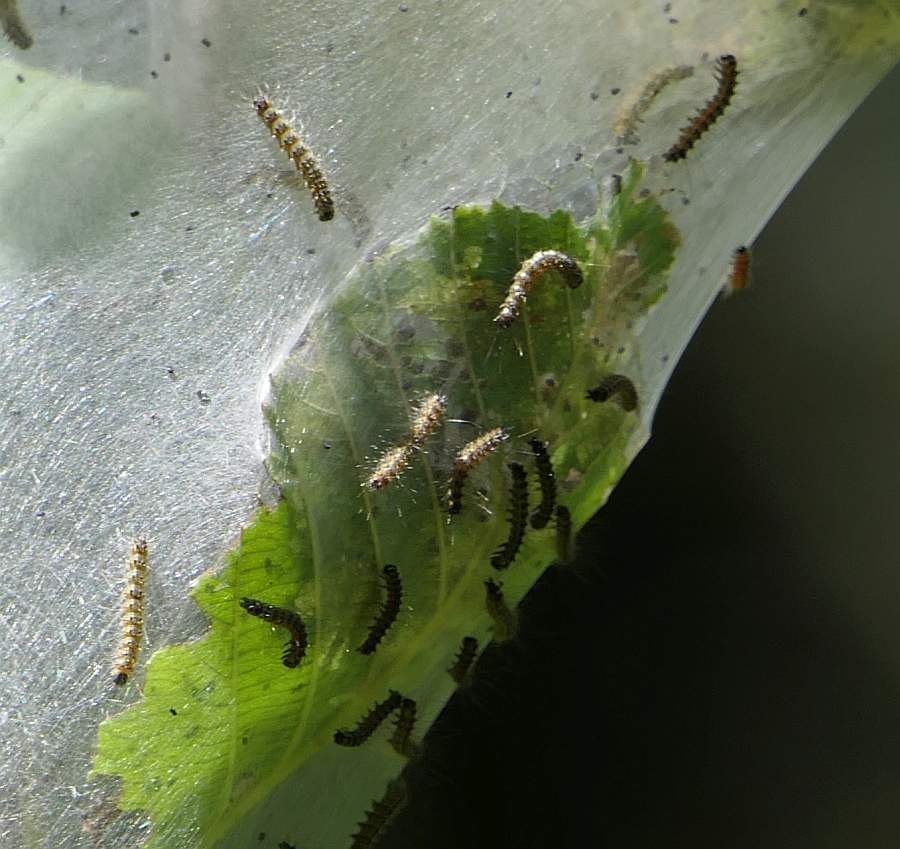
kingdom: Animalia
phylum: Arthropoda
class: Insecta
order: Lepidoptera
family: Erebidae
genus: Hyphantria
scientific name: Hyphantria cunea
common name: American white moth
